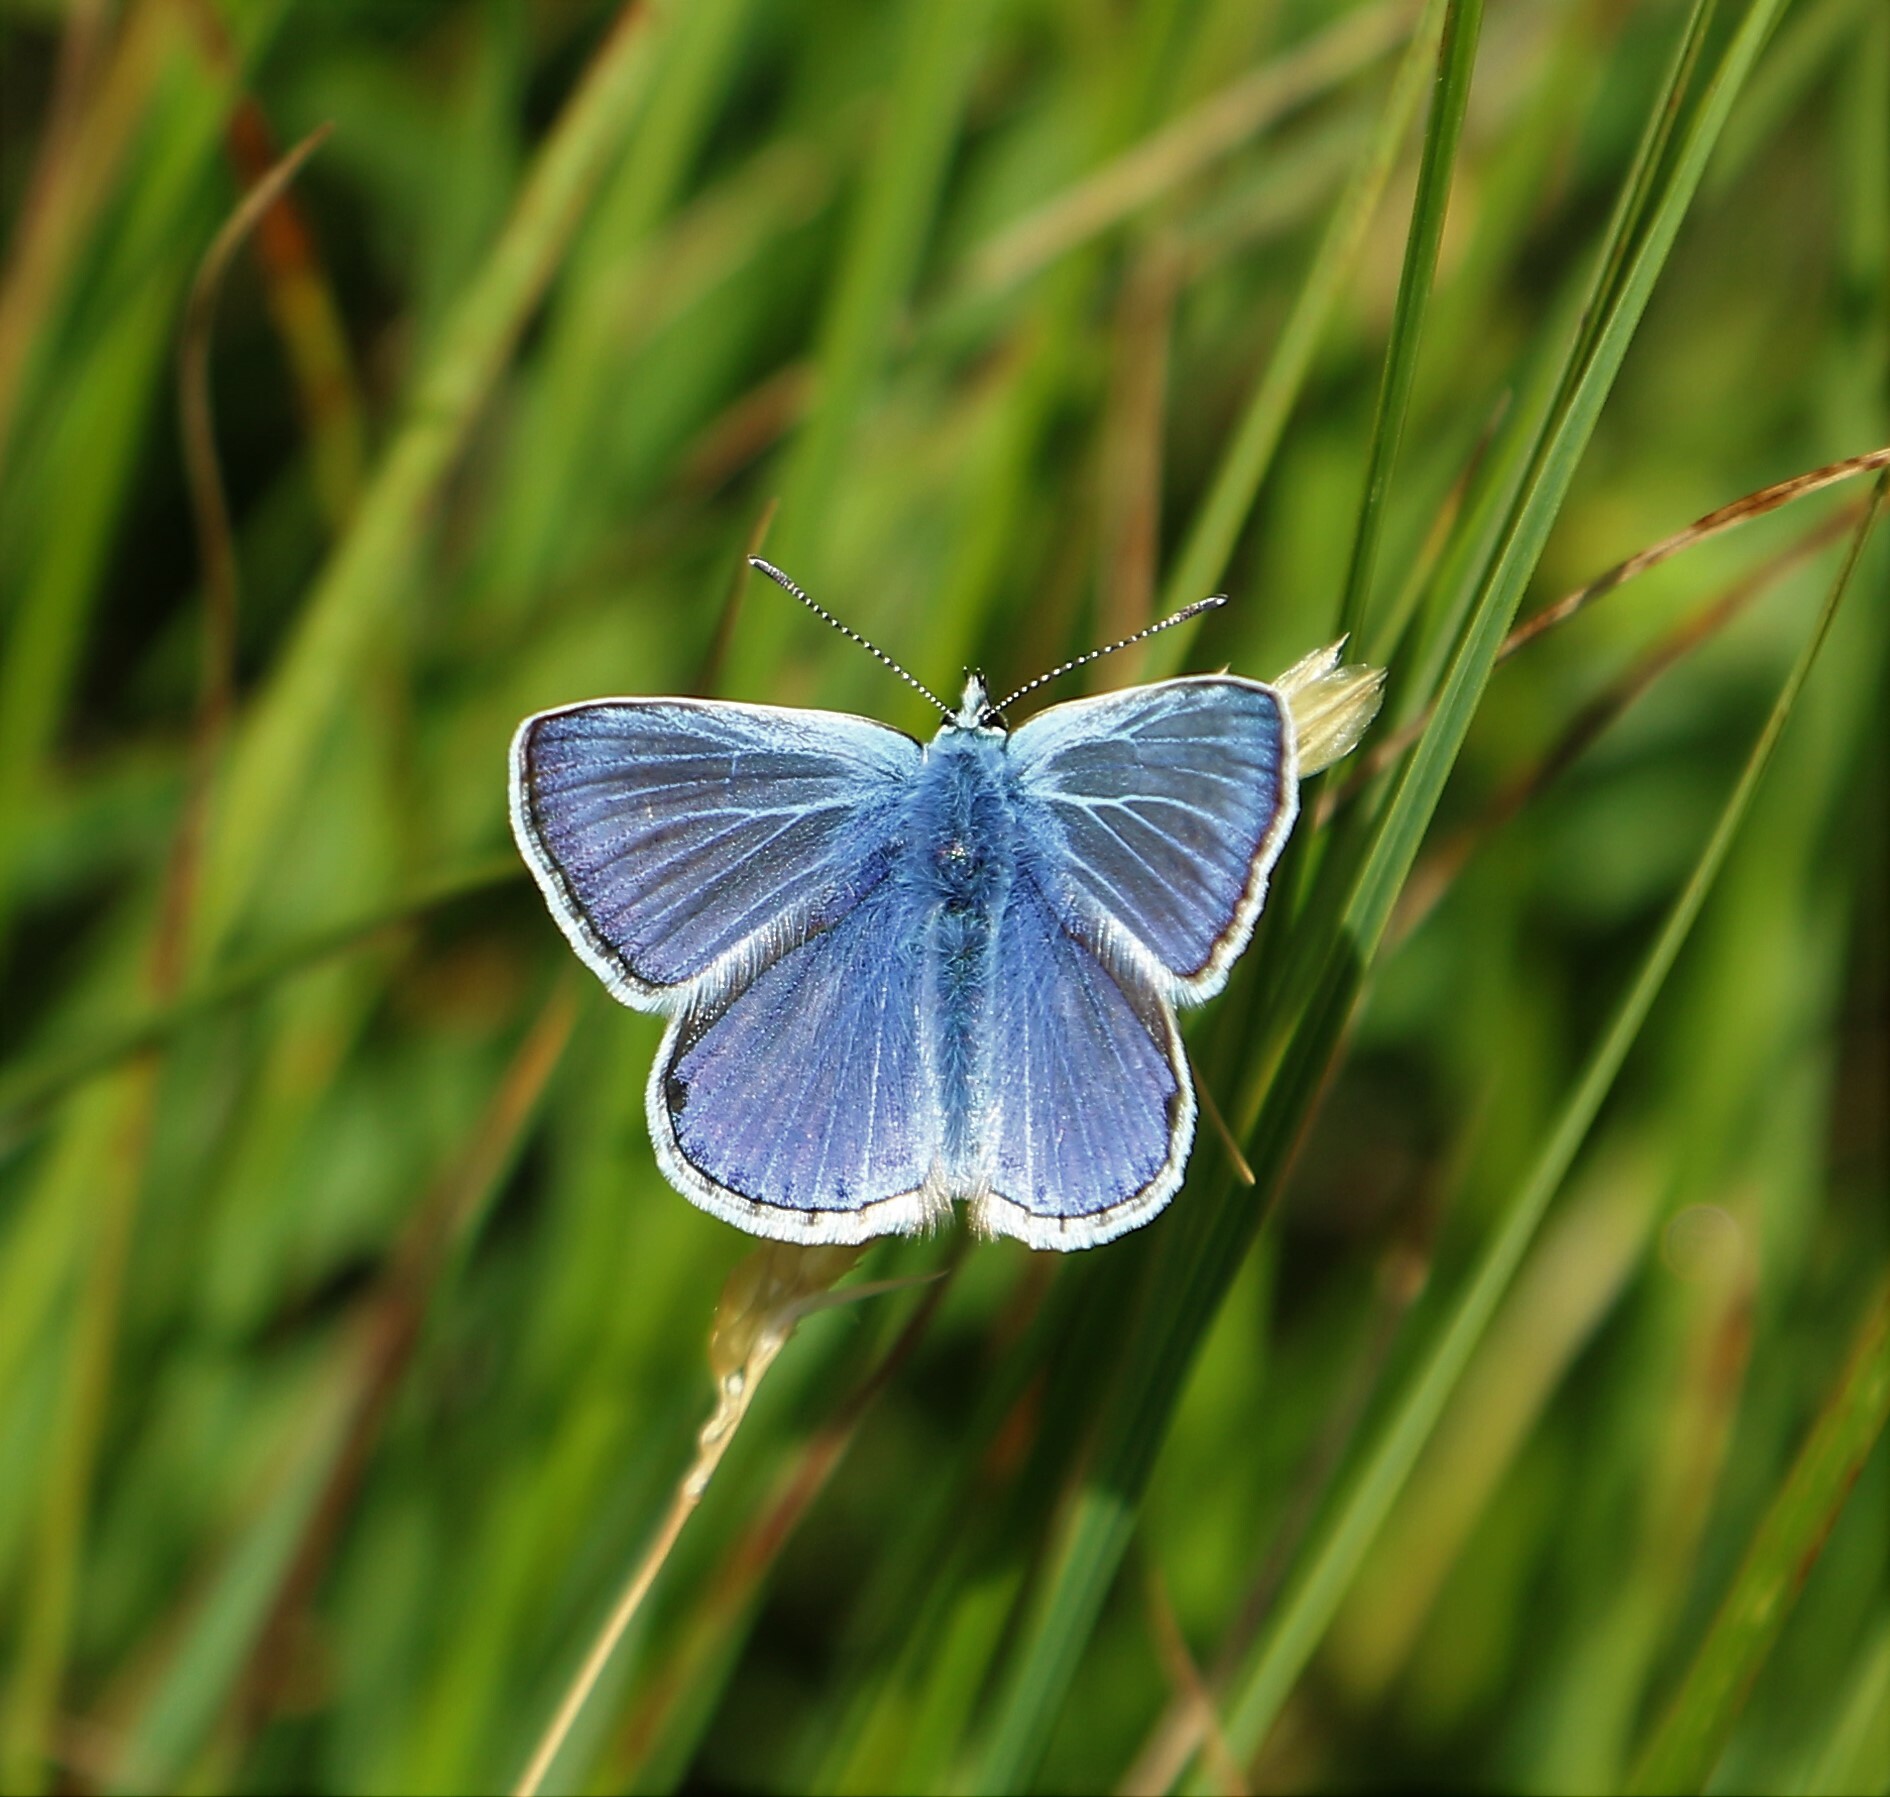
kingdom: Animalia
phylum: Arthropoda
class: Insecta
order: Lepidoptera
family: Lycaenidae
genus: Polyommatus
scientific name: Polyommatus icarus
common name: Common blue
